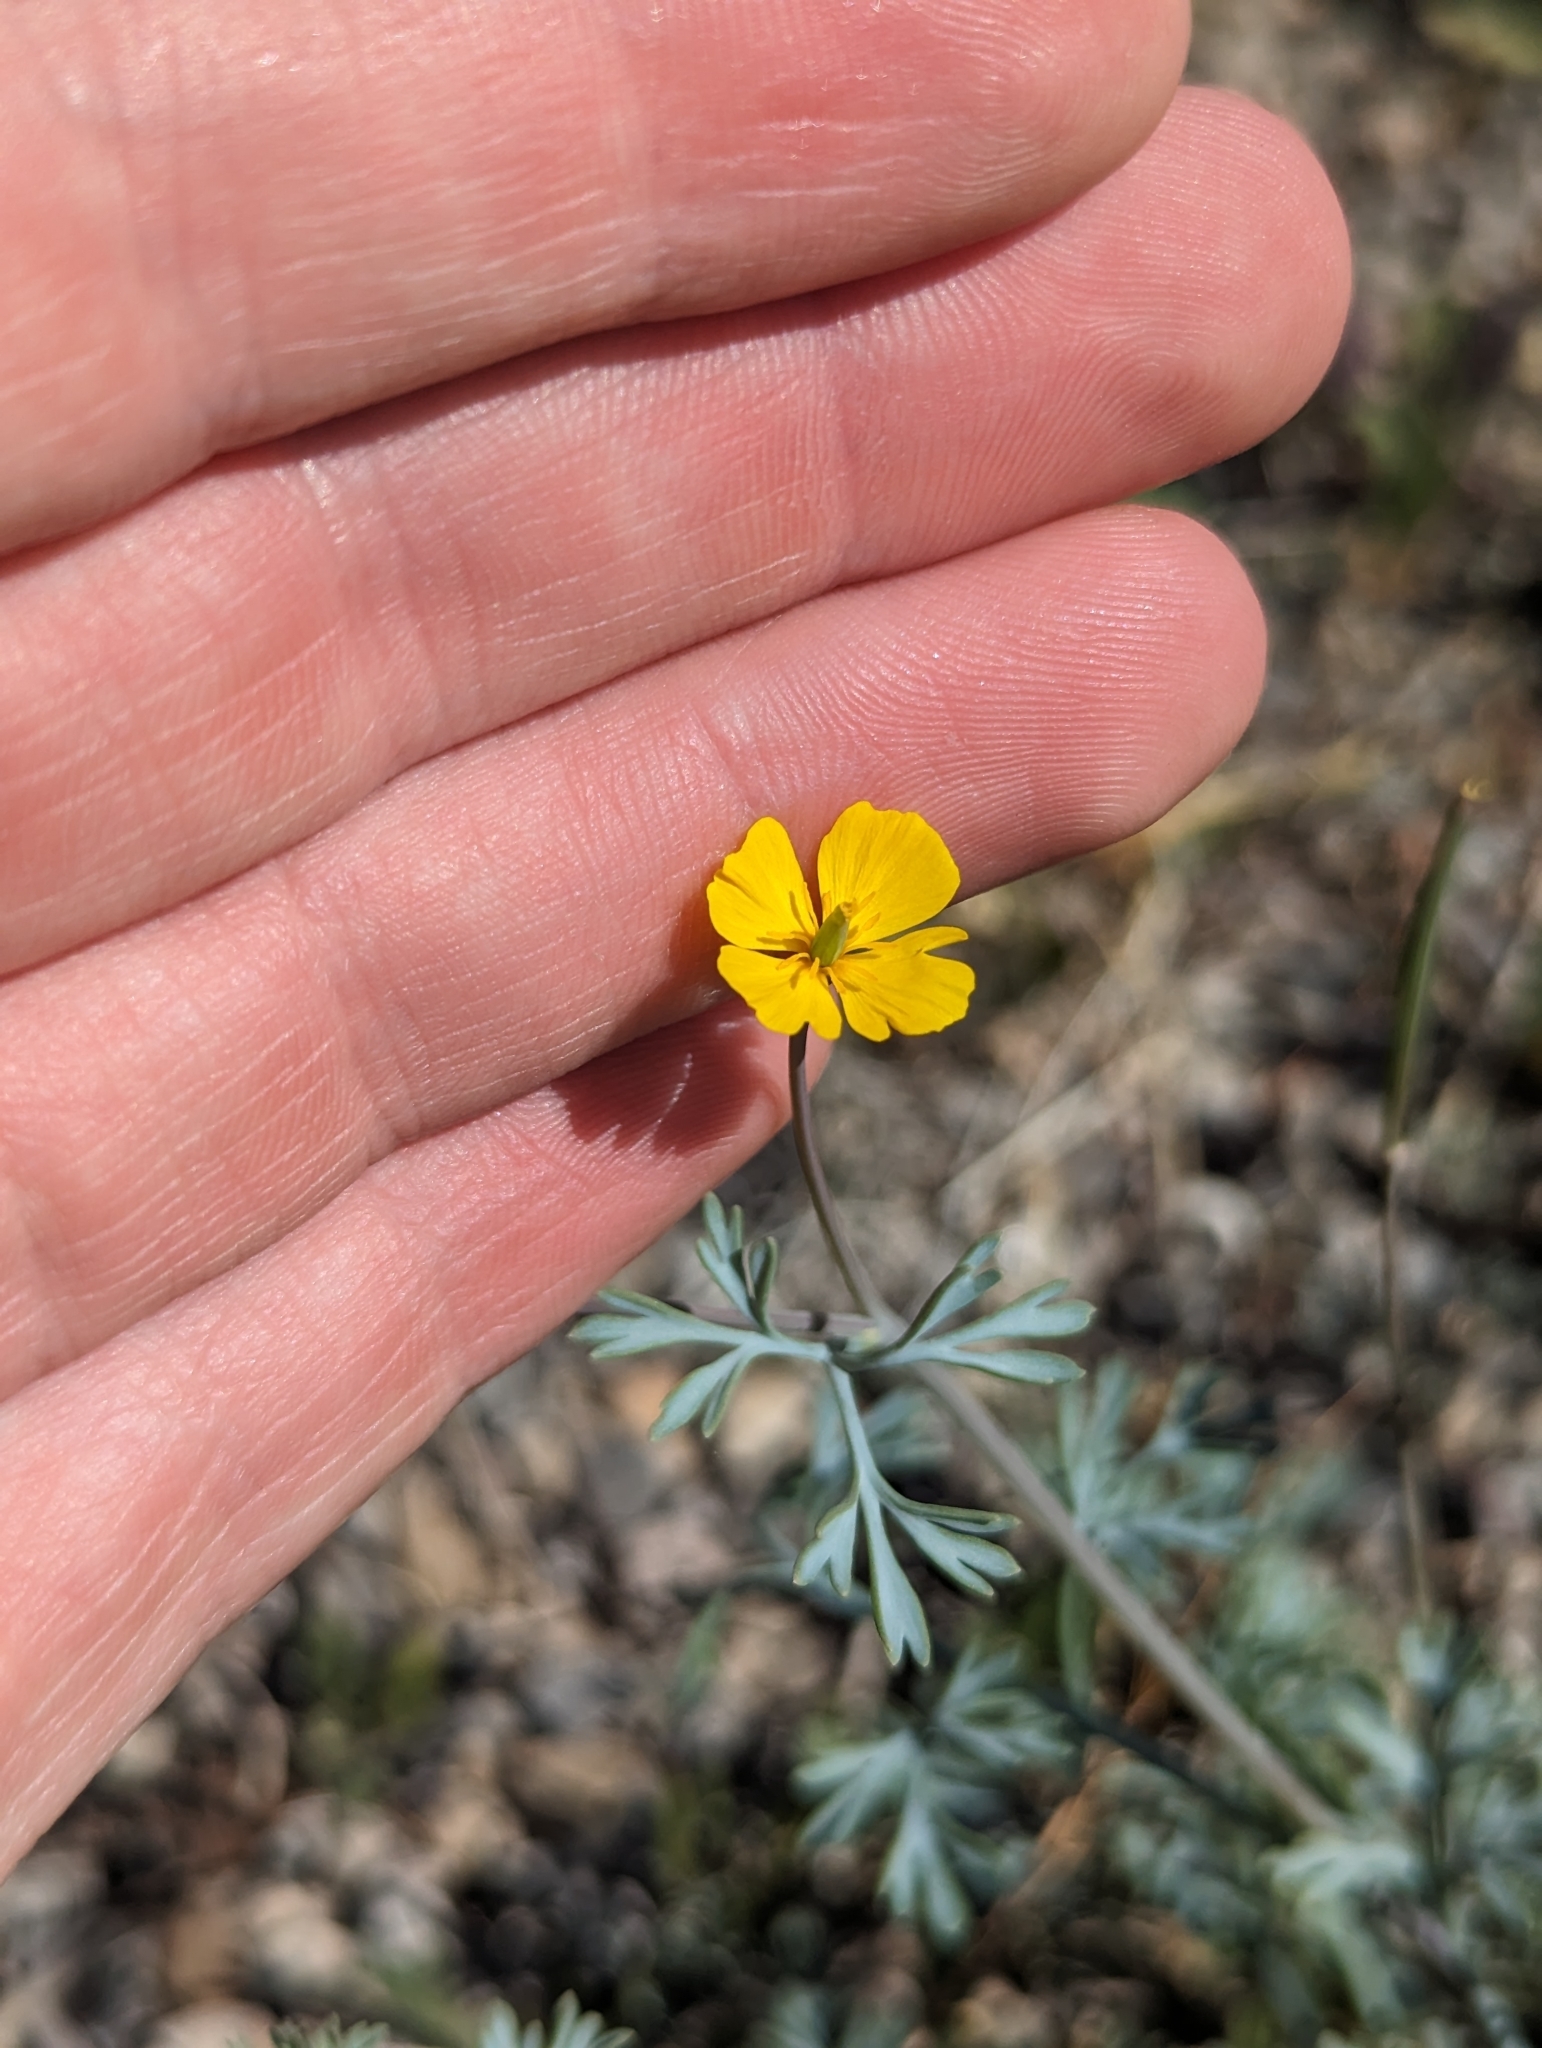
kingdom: Plantae
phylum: Tracheophyta
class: Magnoliopsida
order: Ranunculales
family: Papaveraceae
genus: Eschscholzia
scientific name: Eschscholzia minutiflora
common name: Small-flower california-poppy
